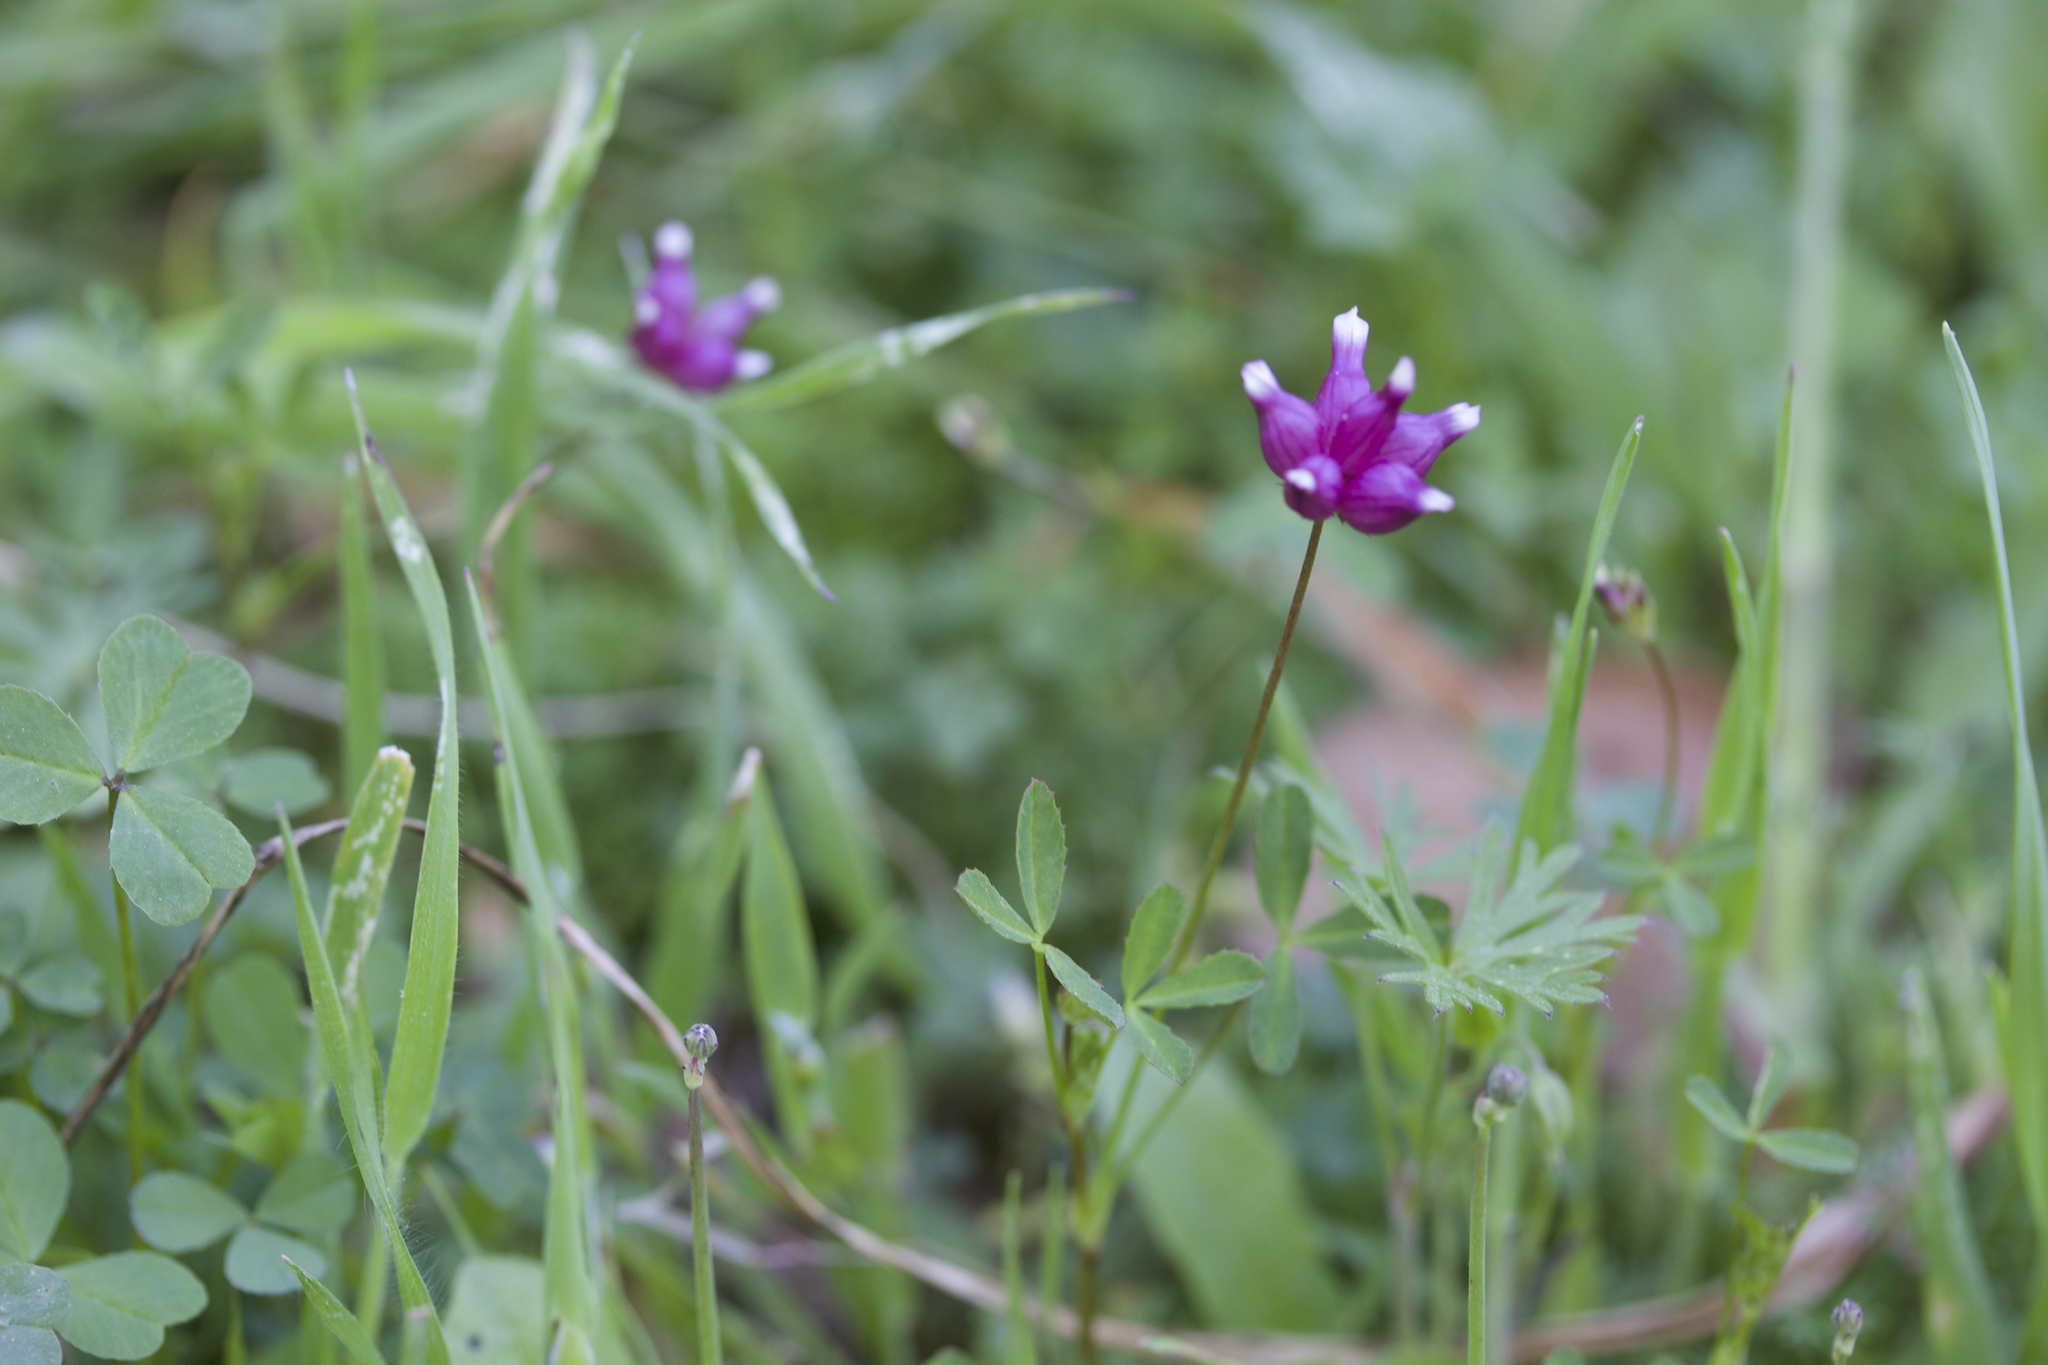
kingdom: Plantae
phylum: Tracheophyta
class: Magnoliopsida
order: Fabales
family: Fabaceae
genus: Trifolium
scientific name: Trifolium depauperatum
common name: Poverty clover
